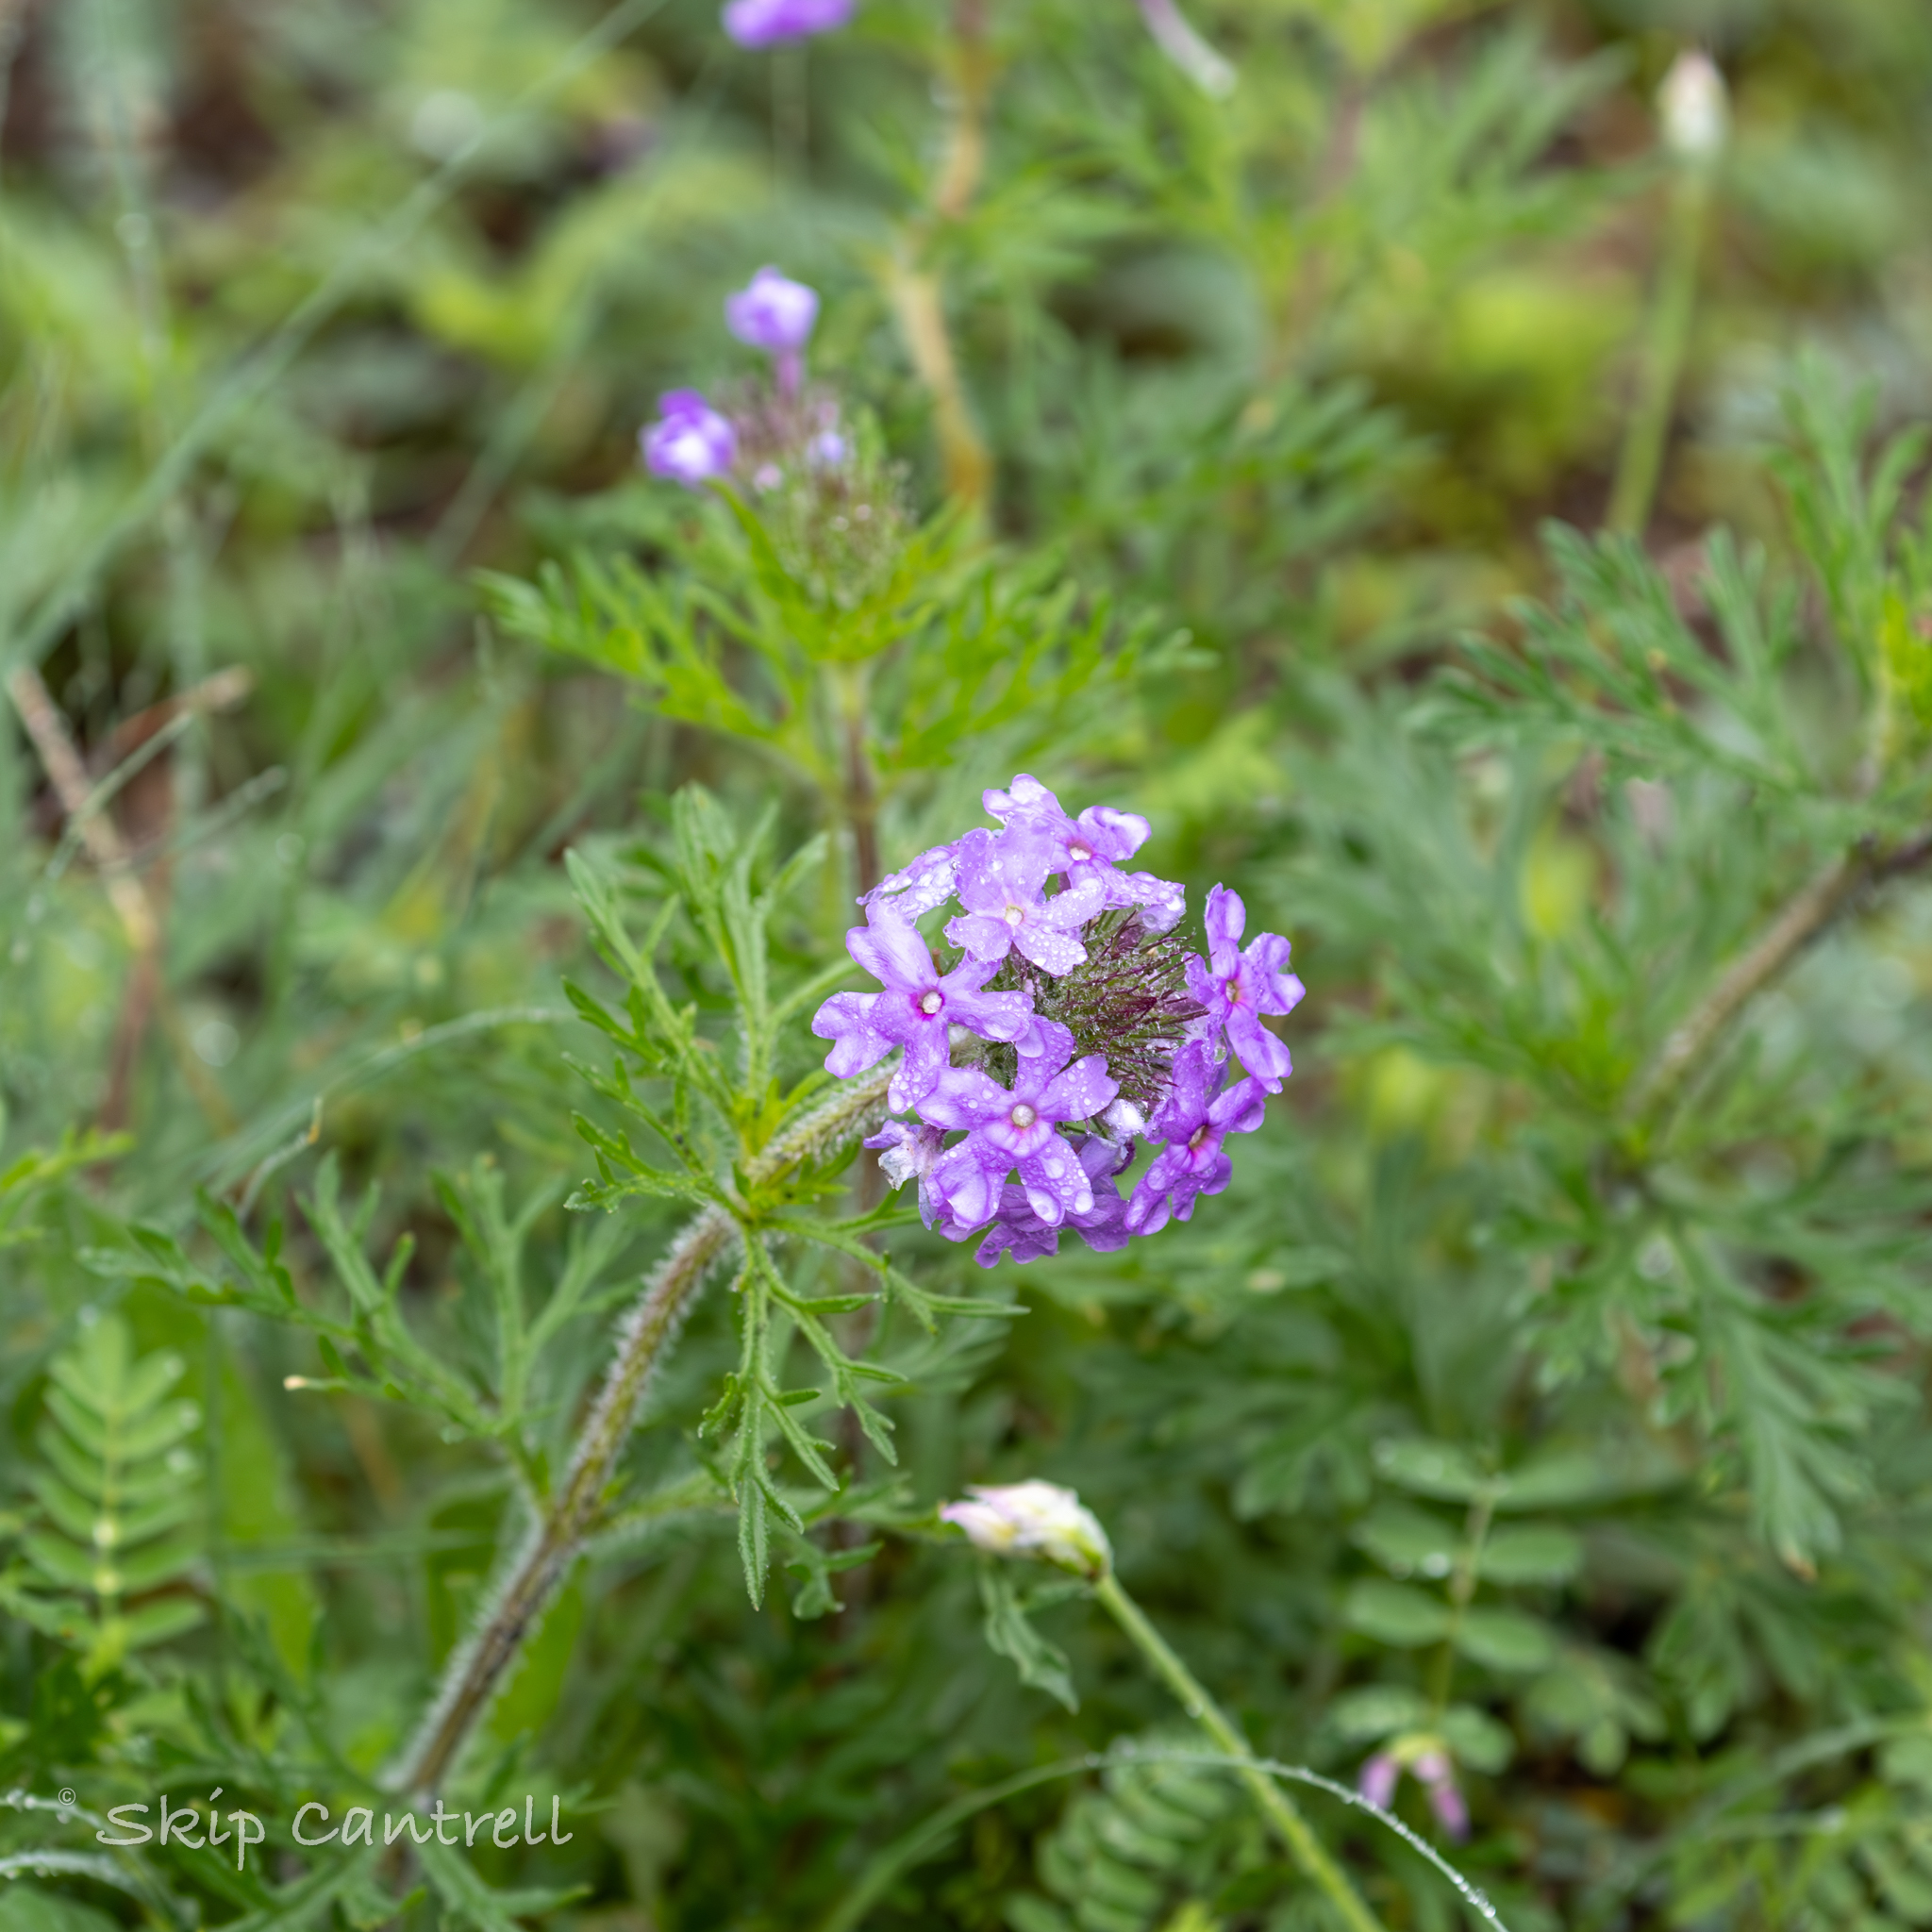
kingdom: Plantae
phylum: Tracheophyta
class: Magnoliopsida
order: Lamiales
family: Verbenaceae
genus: Verbena
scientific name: Verbena bipinnatifida
